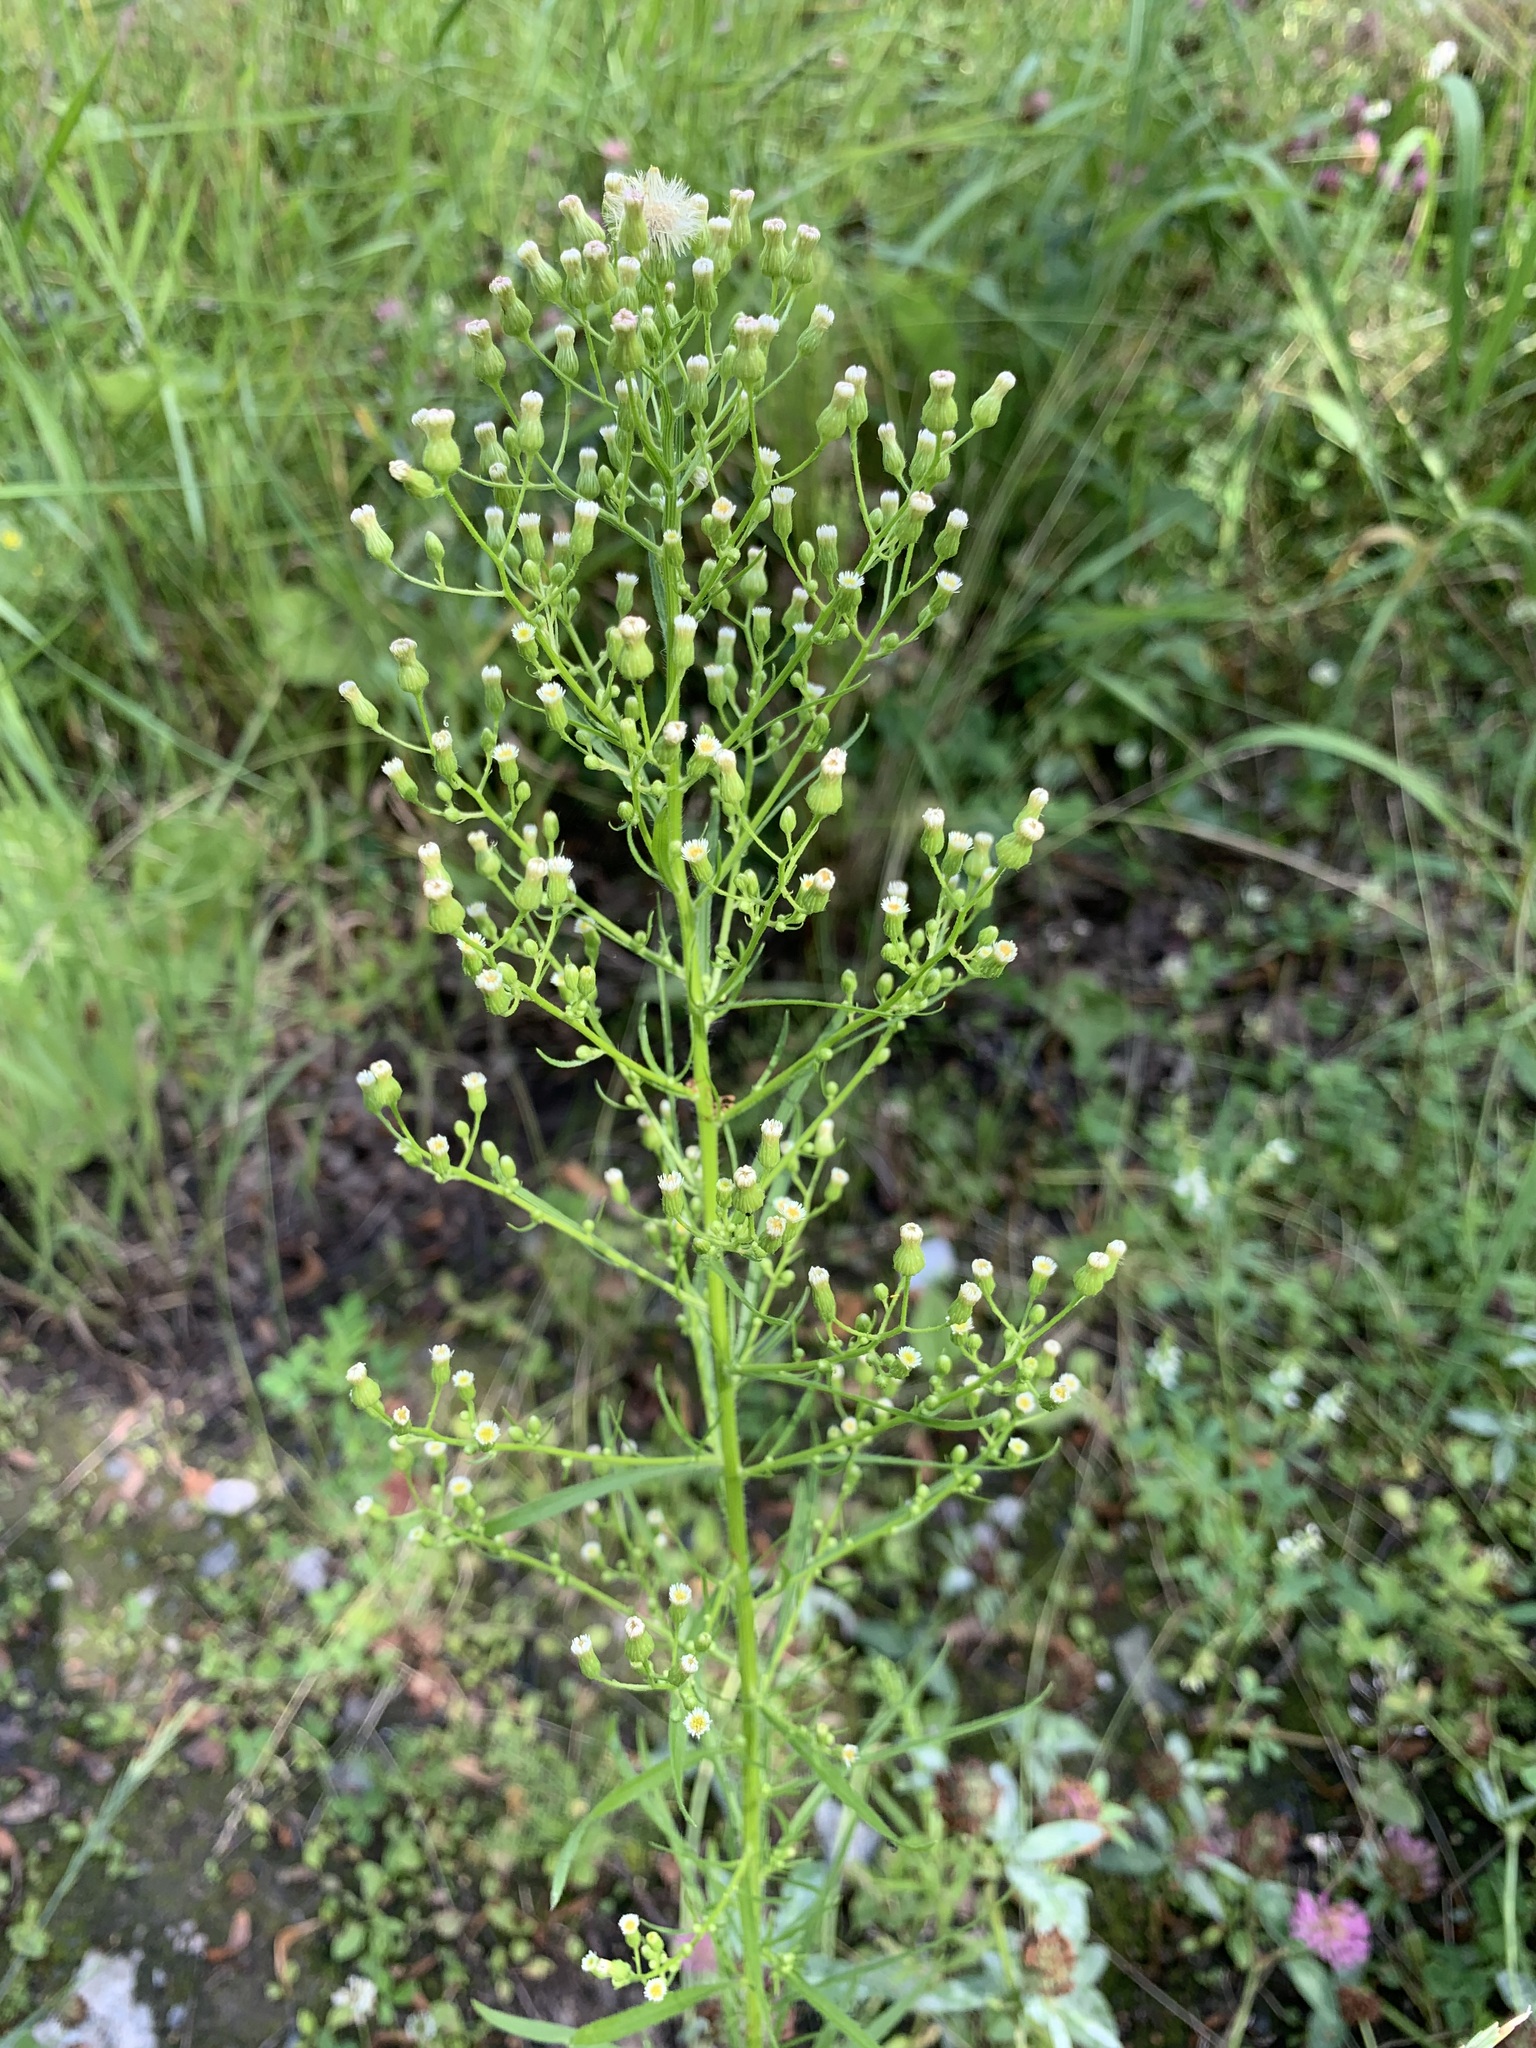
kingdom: Plantae
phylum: Tracheophyta
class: Magnoliopsida
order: Asterales
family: Asteraceae
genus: Erigeron
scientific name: Erigeron canadensis
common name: Canadian fleabane
